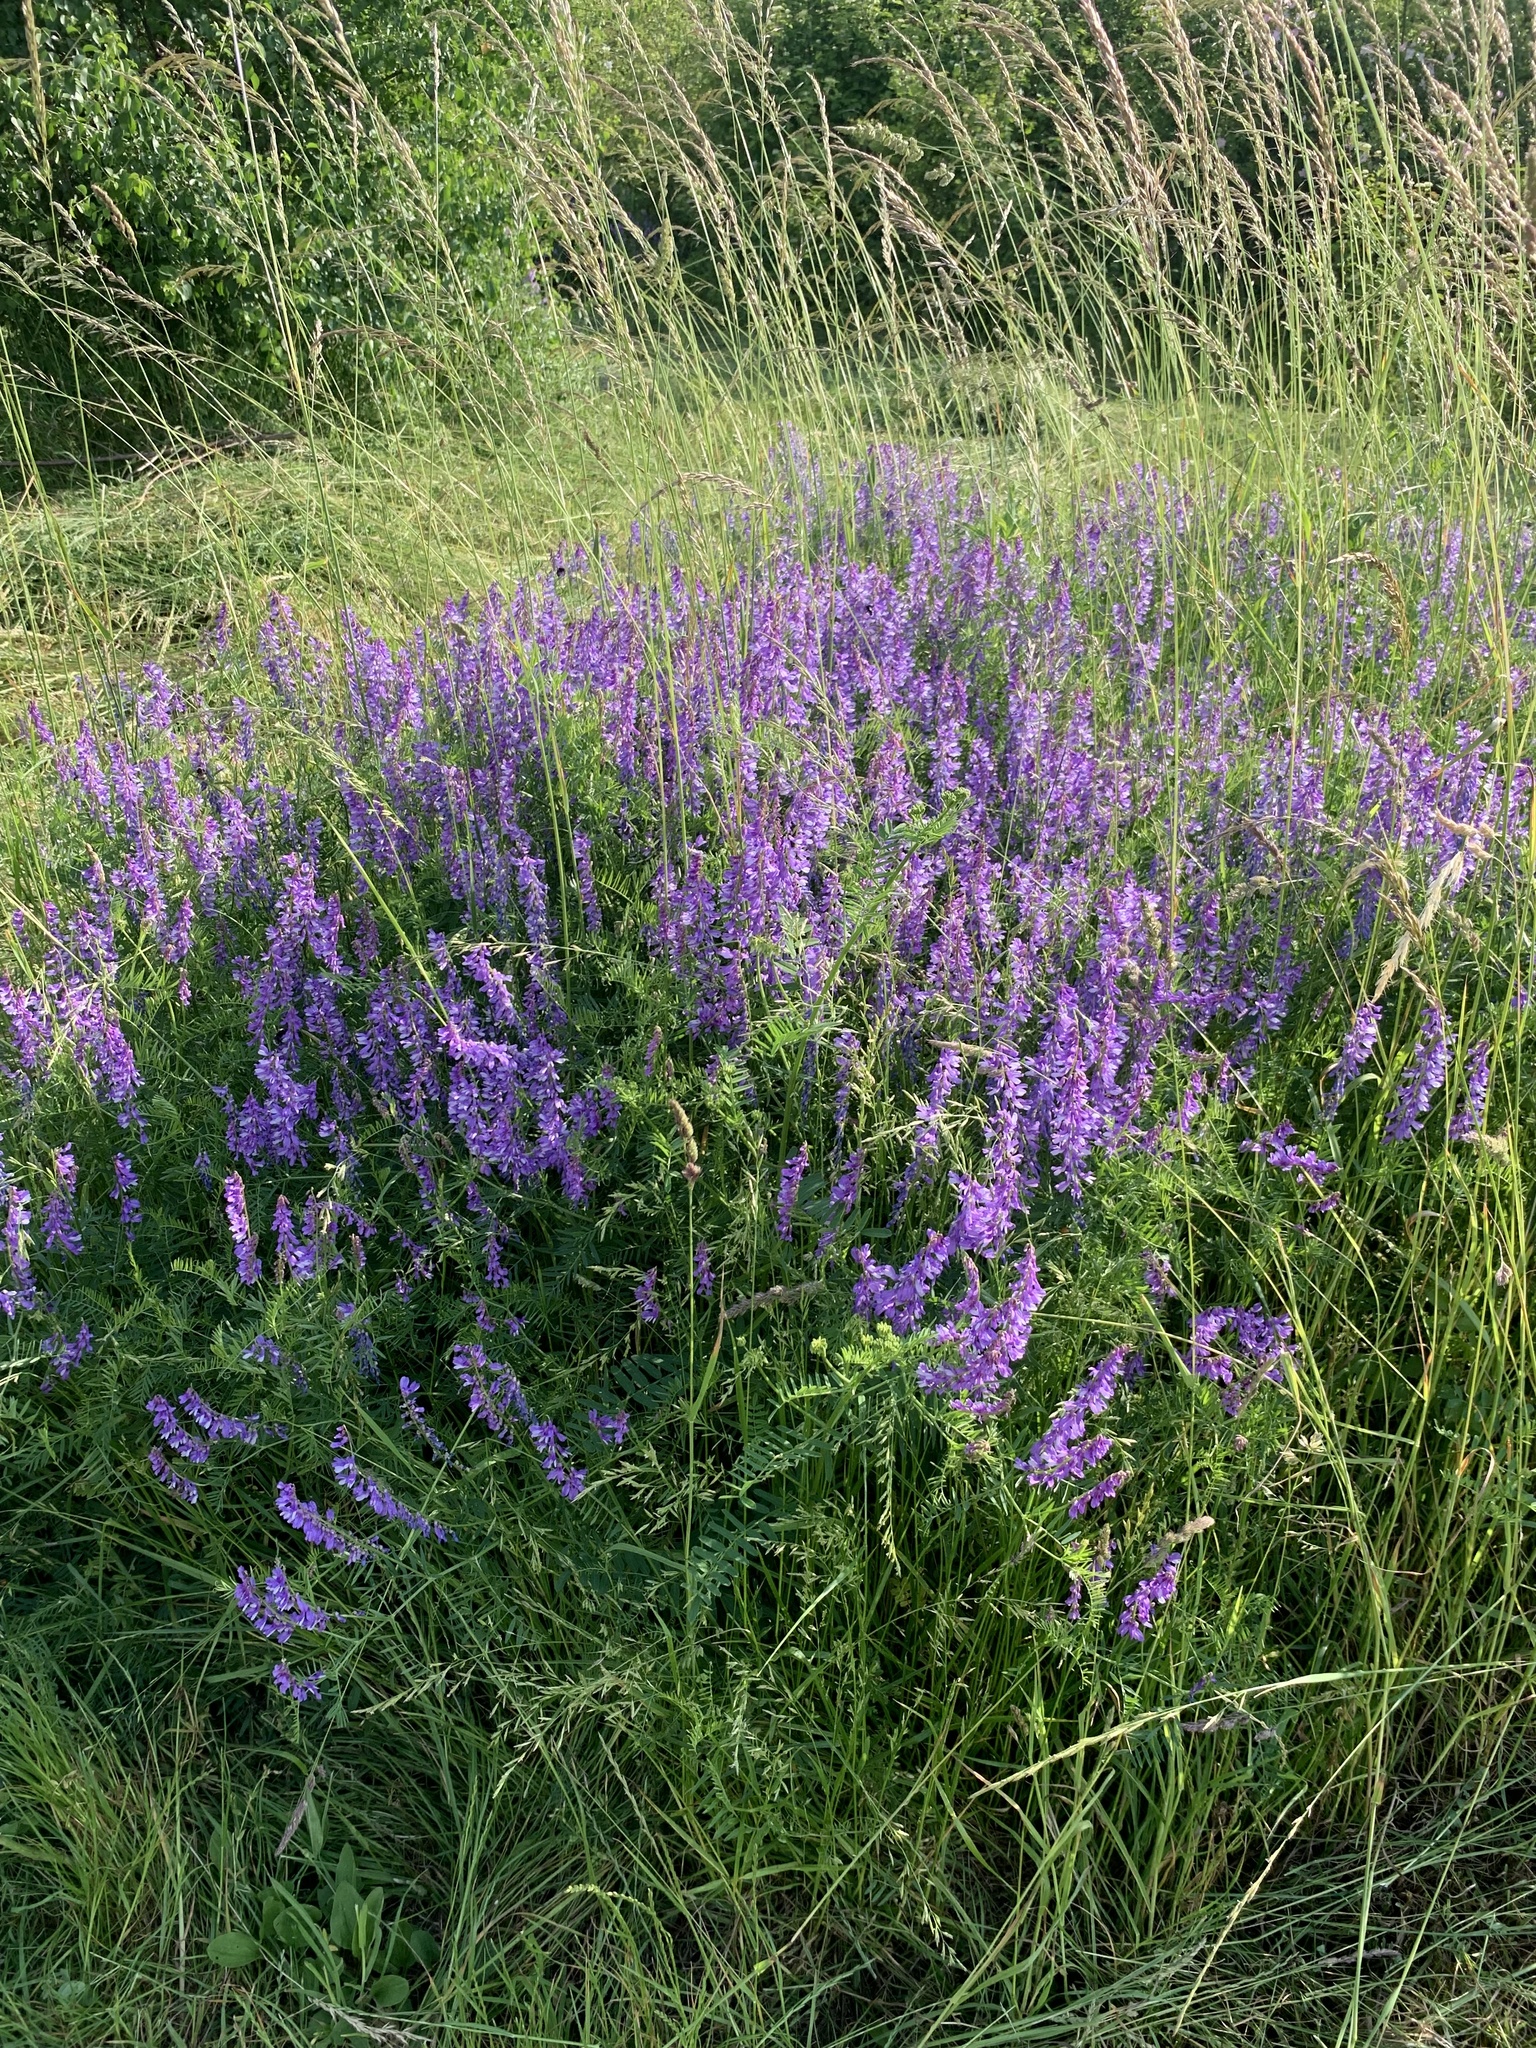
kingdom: Plantae
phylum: Tracheophyta
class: Magnoliopsida
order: Fabales
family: Fabaceae
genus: Vicia
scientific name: Vicia tenuifolia
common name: Fine-leaved vetch
